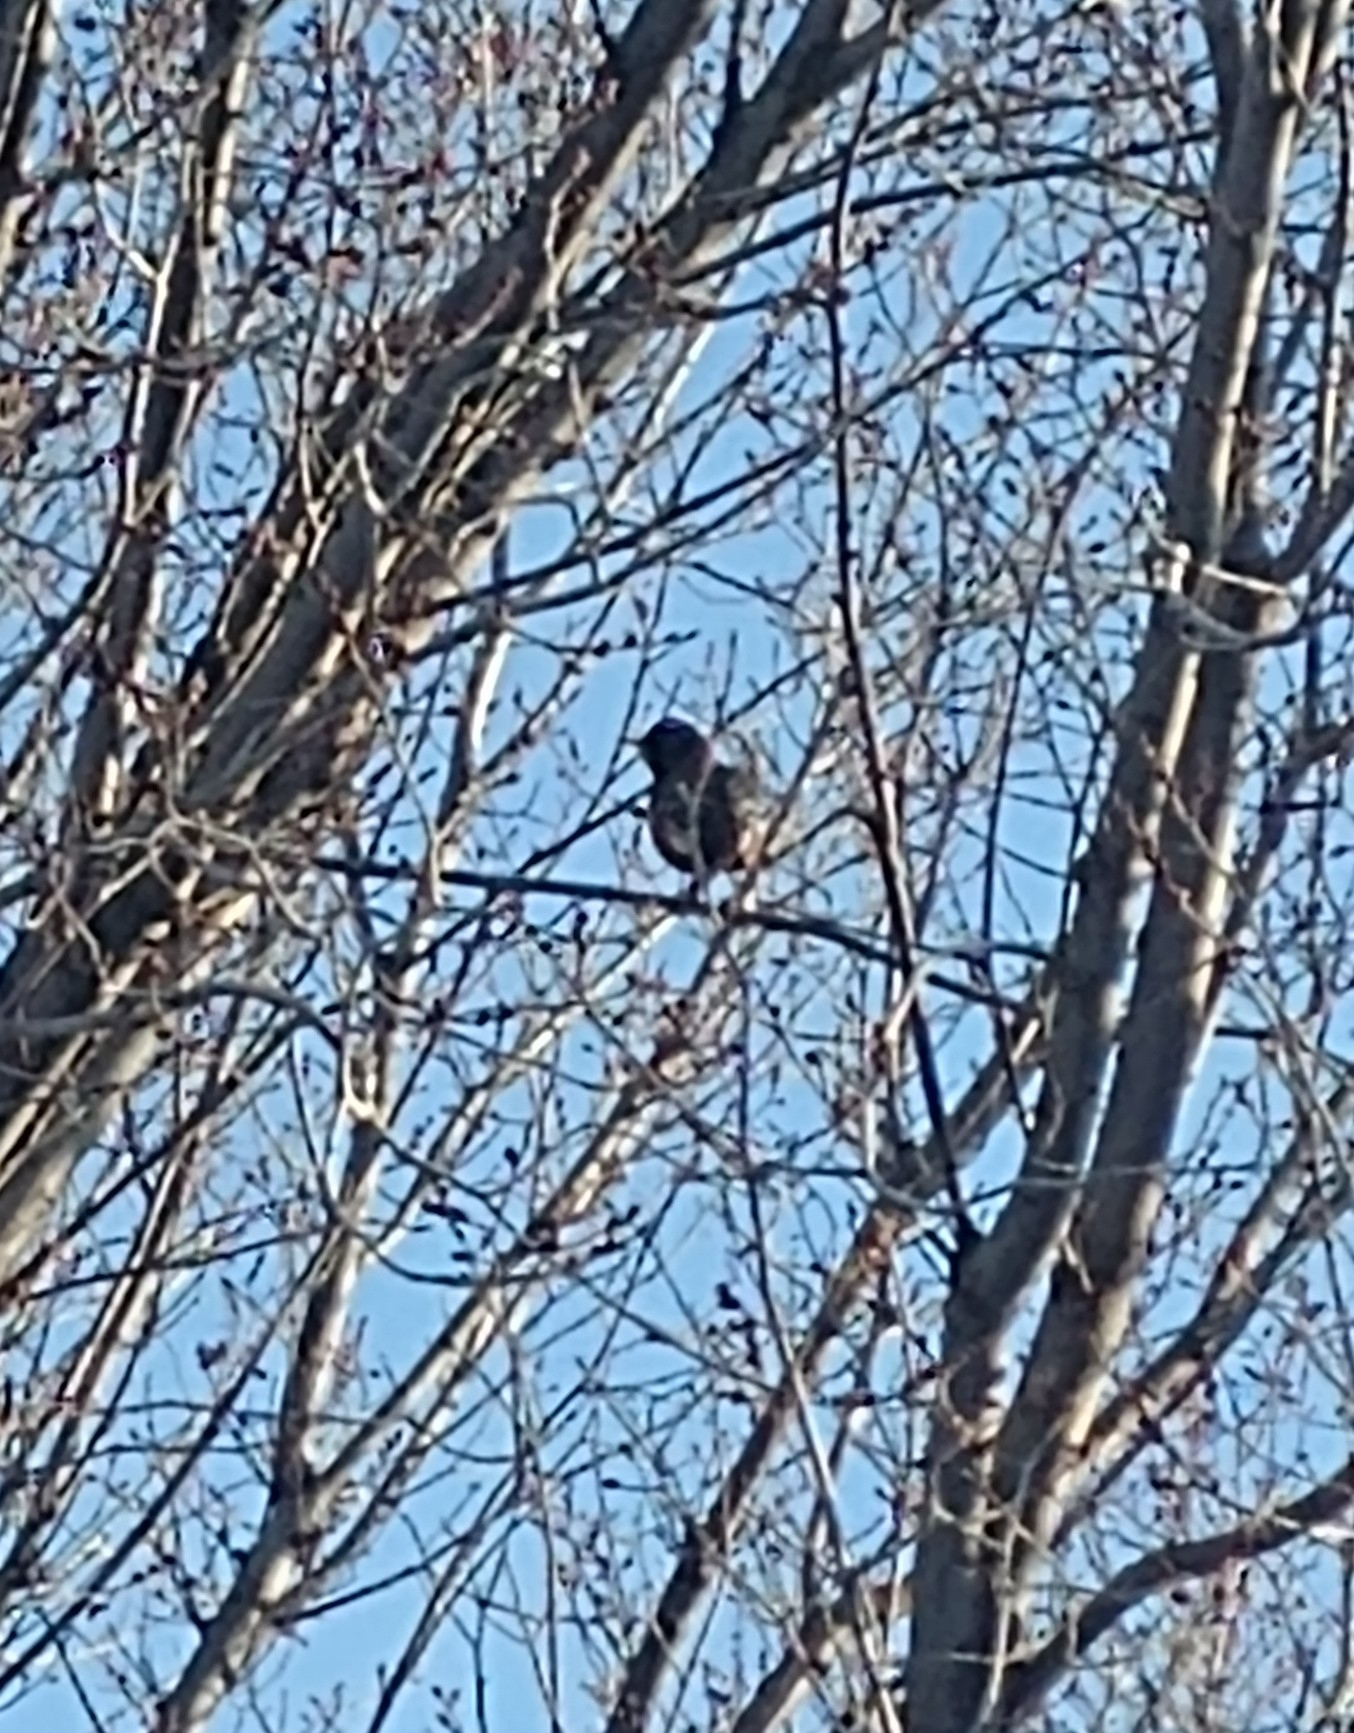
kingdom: Animalia
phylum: Chordata
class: Aves
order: Passeriformes
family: Turdidae
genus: Turdus
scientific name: Turdus migratorius
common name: American robin
